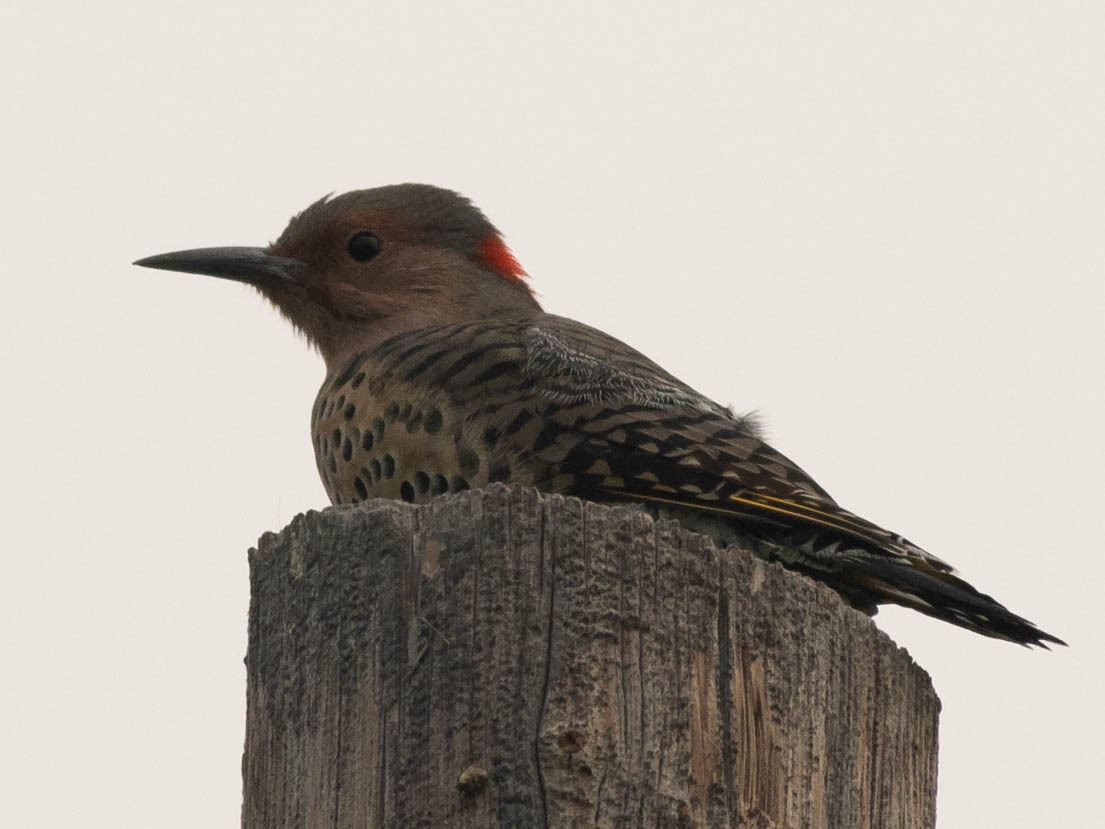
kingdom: Animalia
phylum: Chordata
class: Aves
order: Piciformes
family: Picidae
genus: Colaptes
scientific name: Colaptes auratus
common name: Northern flicker
